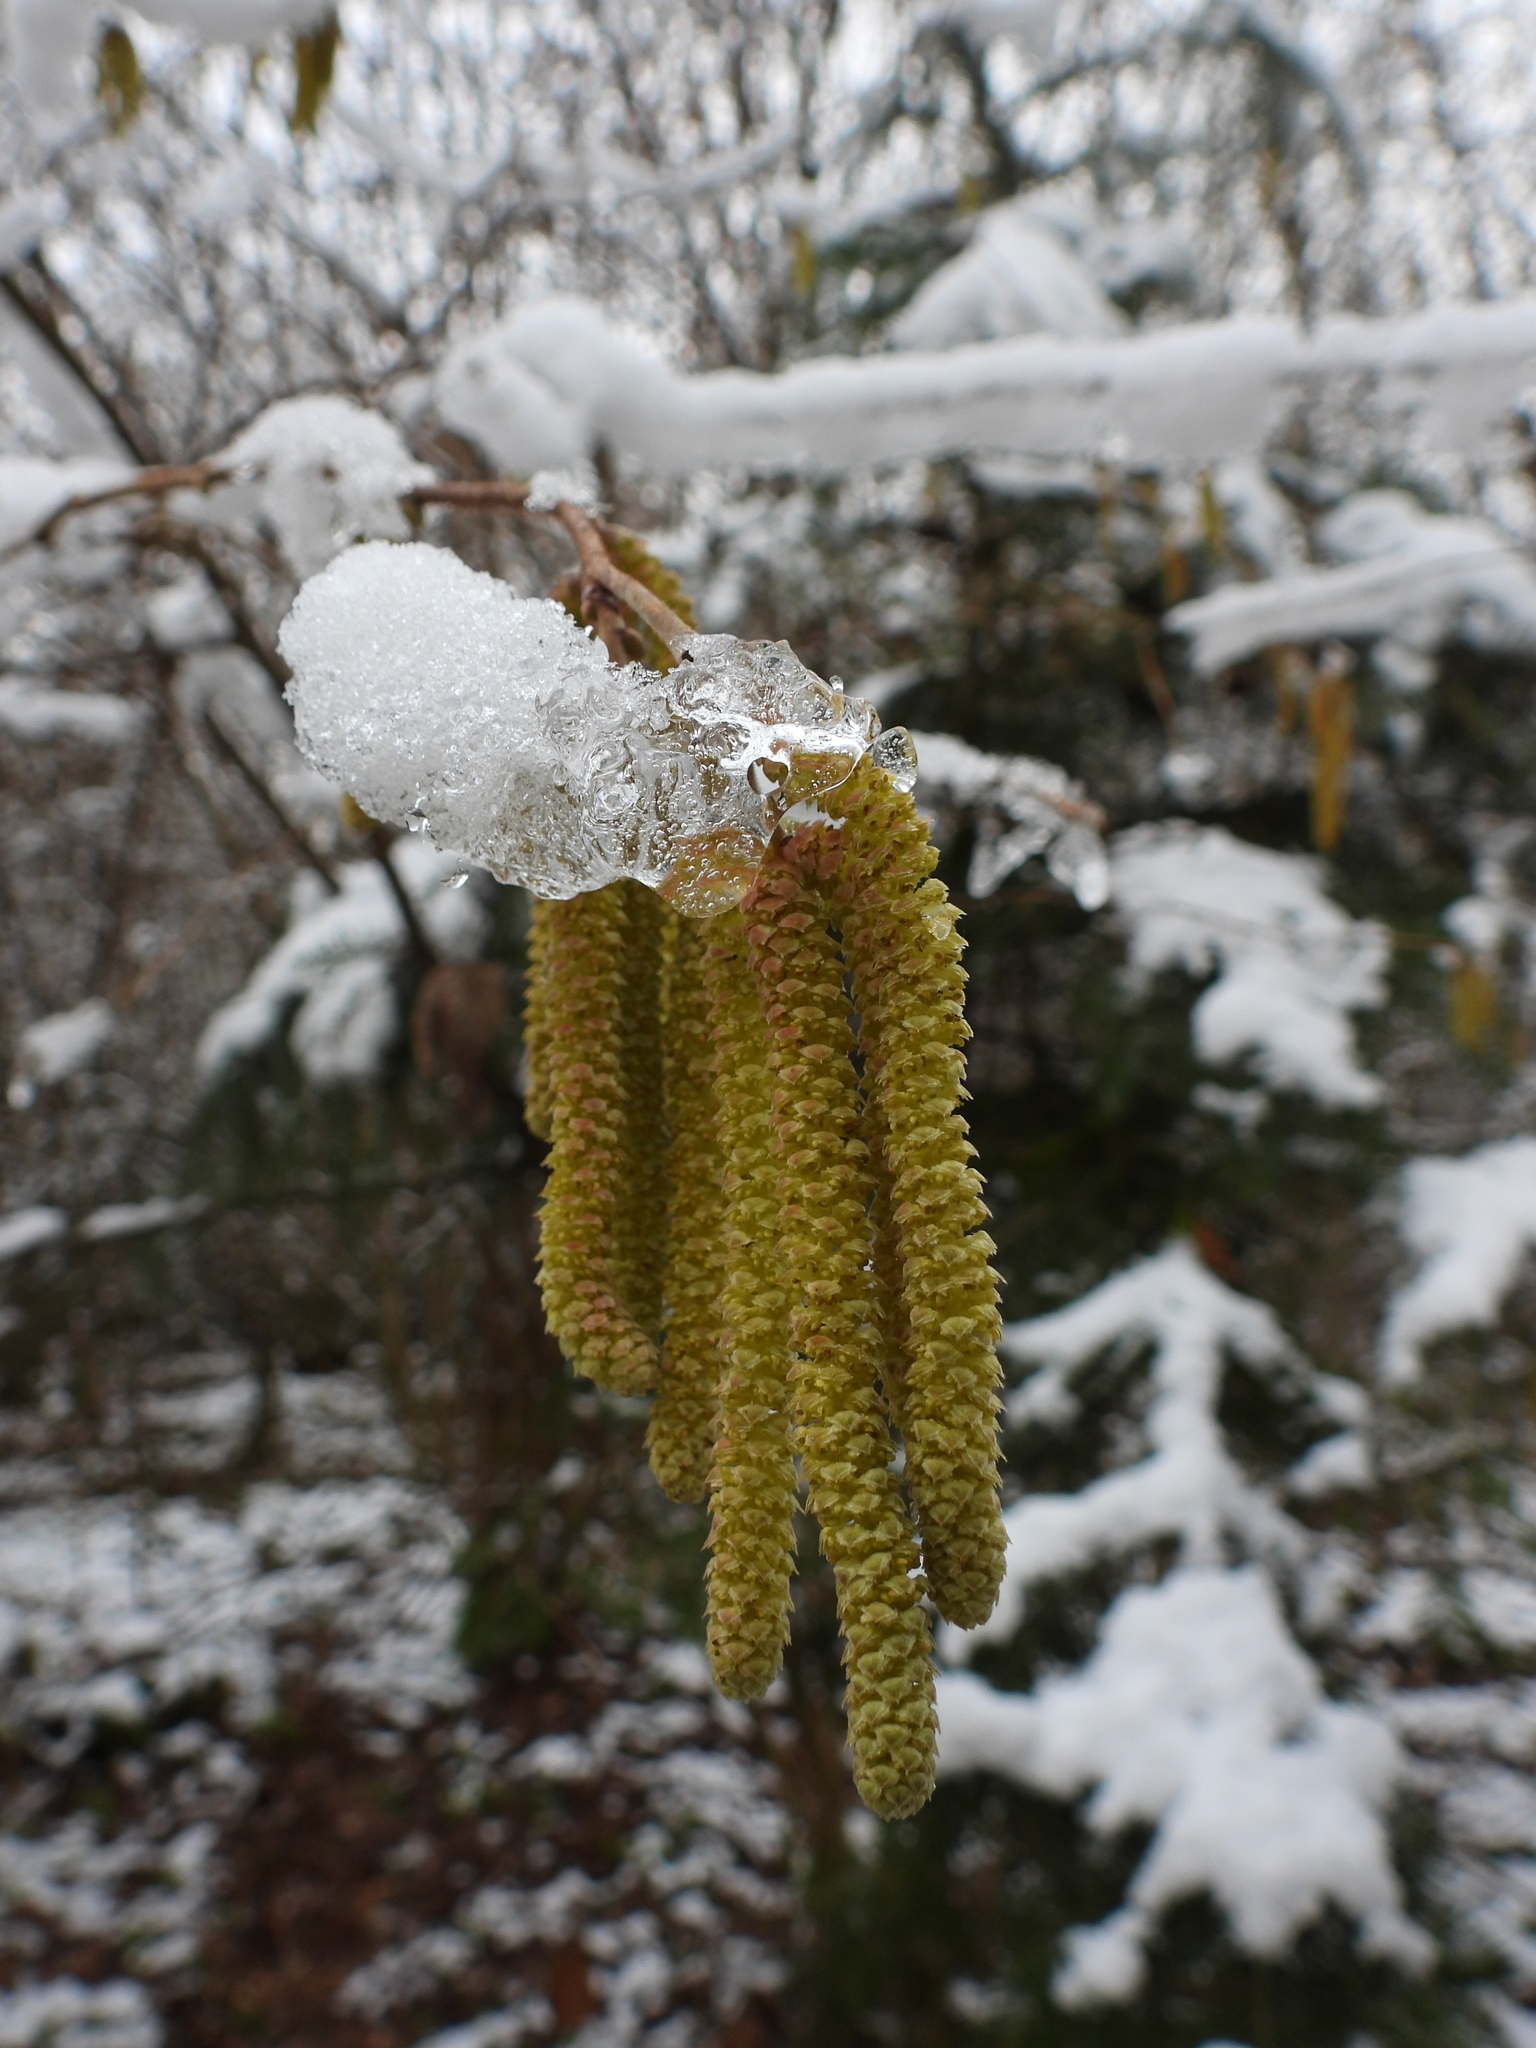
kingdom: Plantae
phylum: Tracheophyta
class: Magnoliopsida
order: Fagales
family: Betulaceae
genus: Corylus
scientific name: Corylus avellana
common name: European hazel
